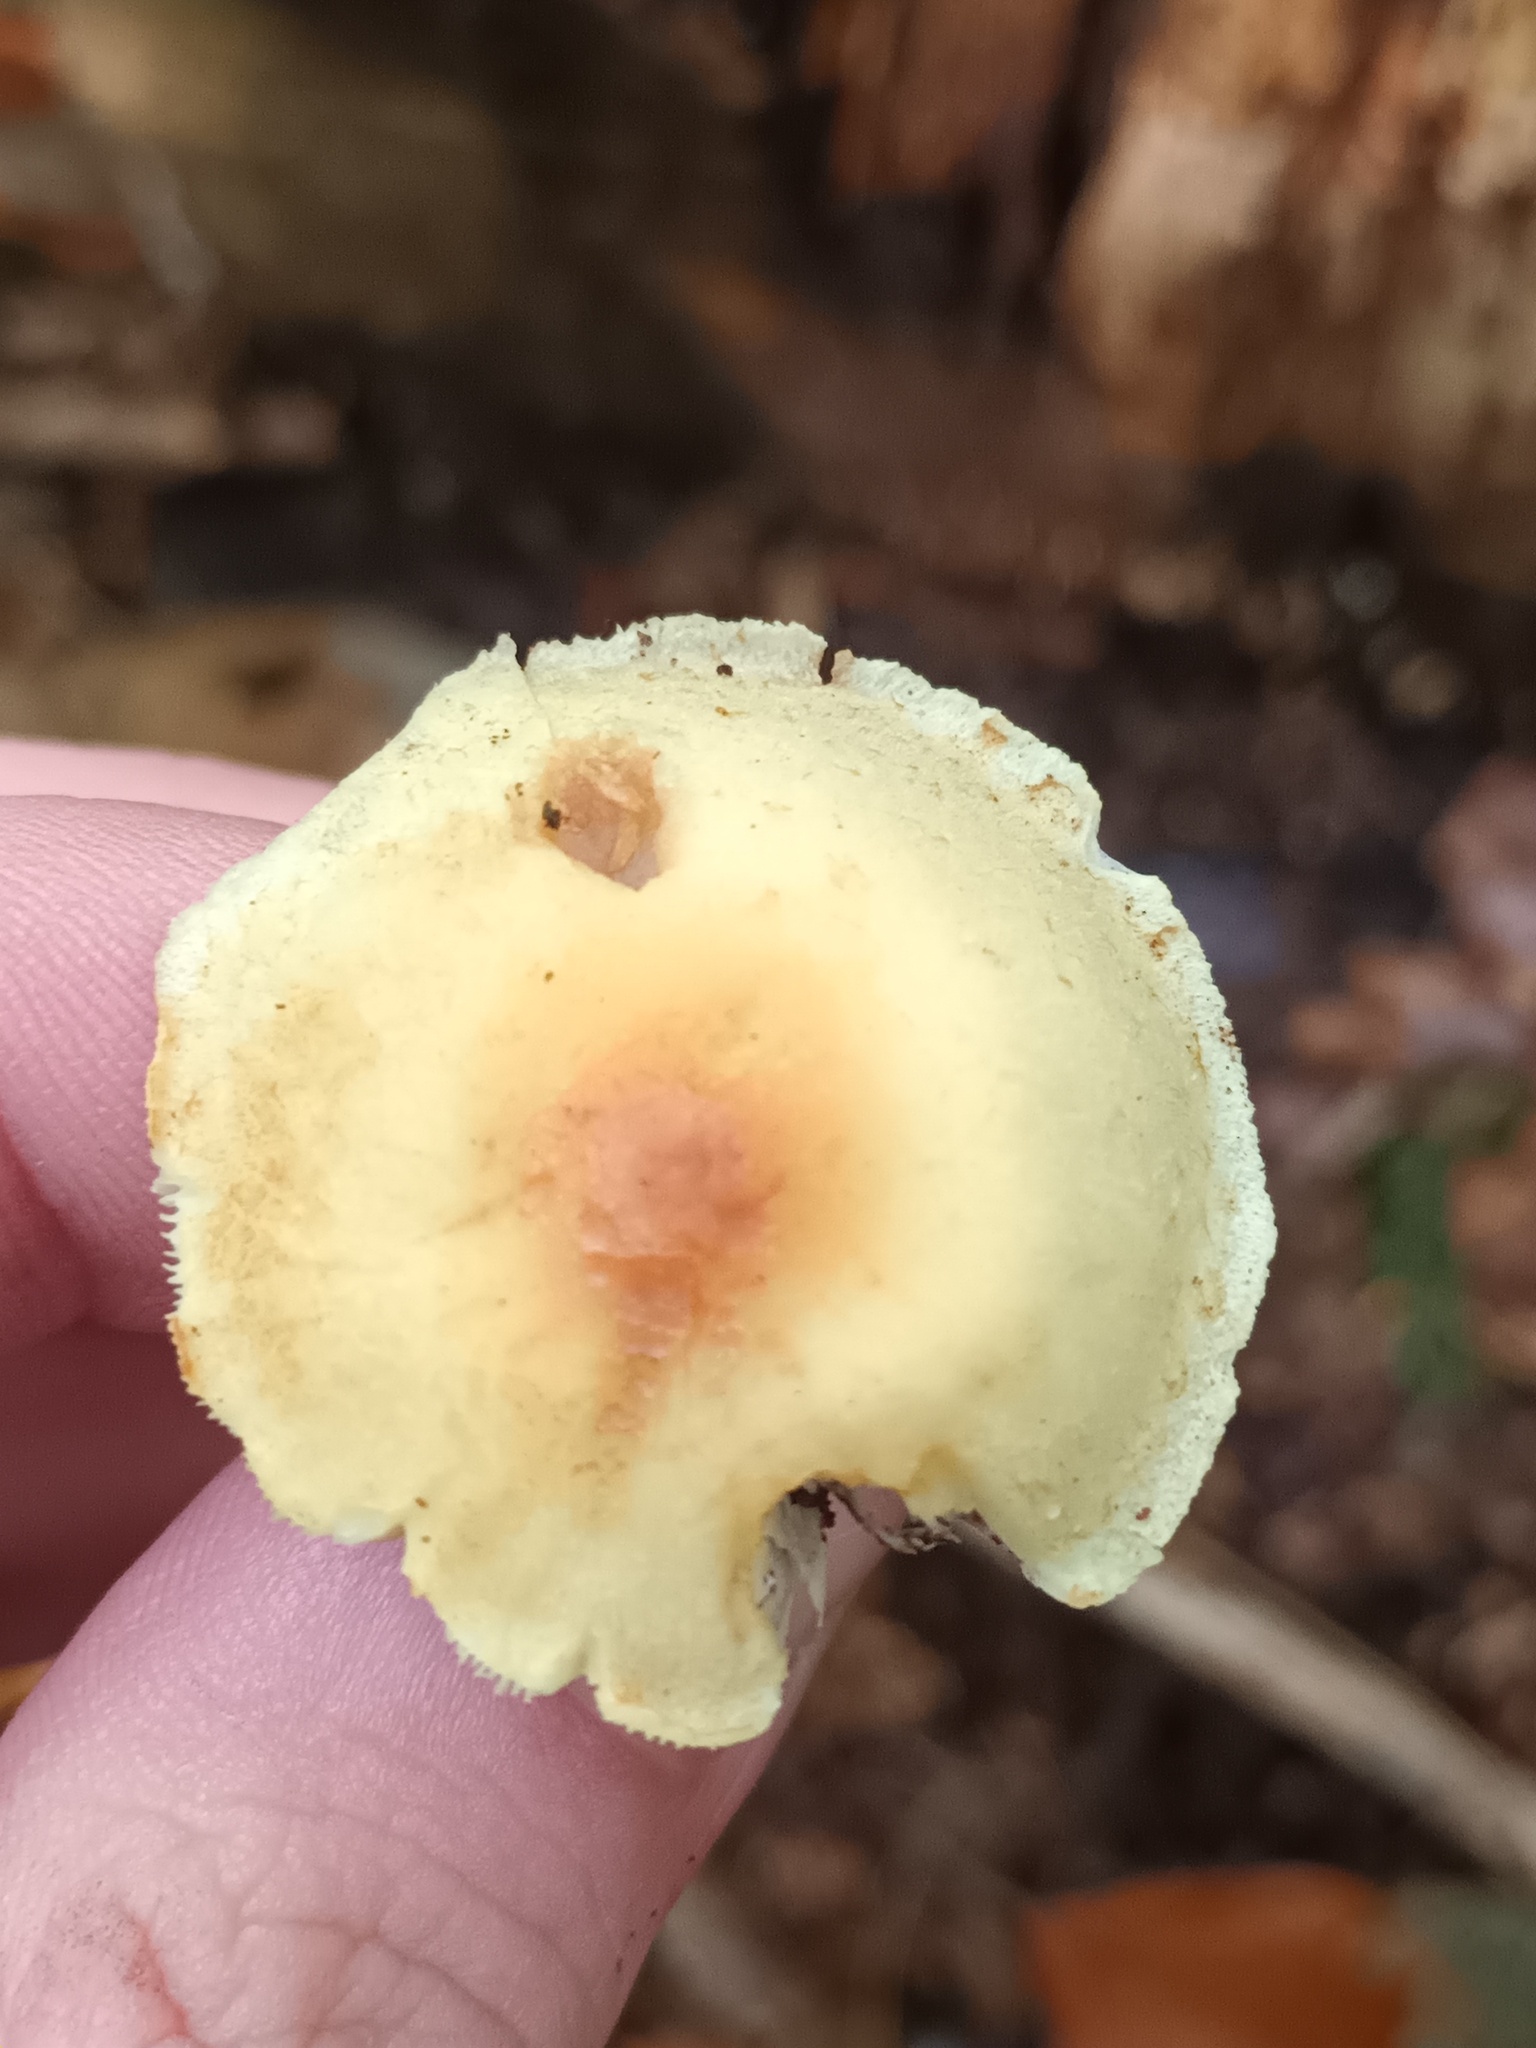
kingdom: Fungi
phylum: Basidiomycota
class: Agaricomycetes
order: Agaricales
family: Strophariaceae
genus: Hypholoma
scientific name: Hypholoma fasciculare
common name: Sulphur tuft
